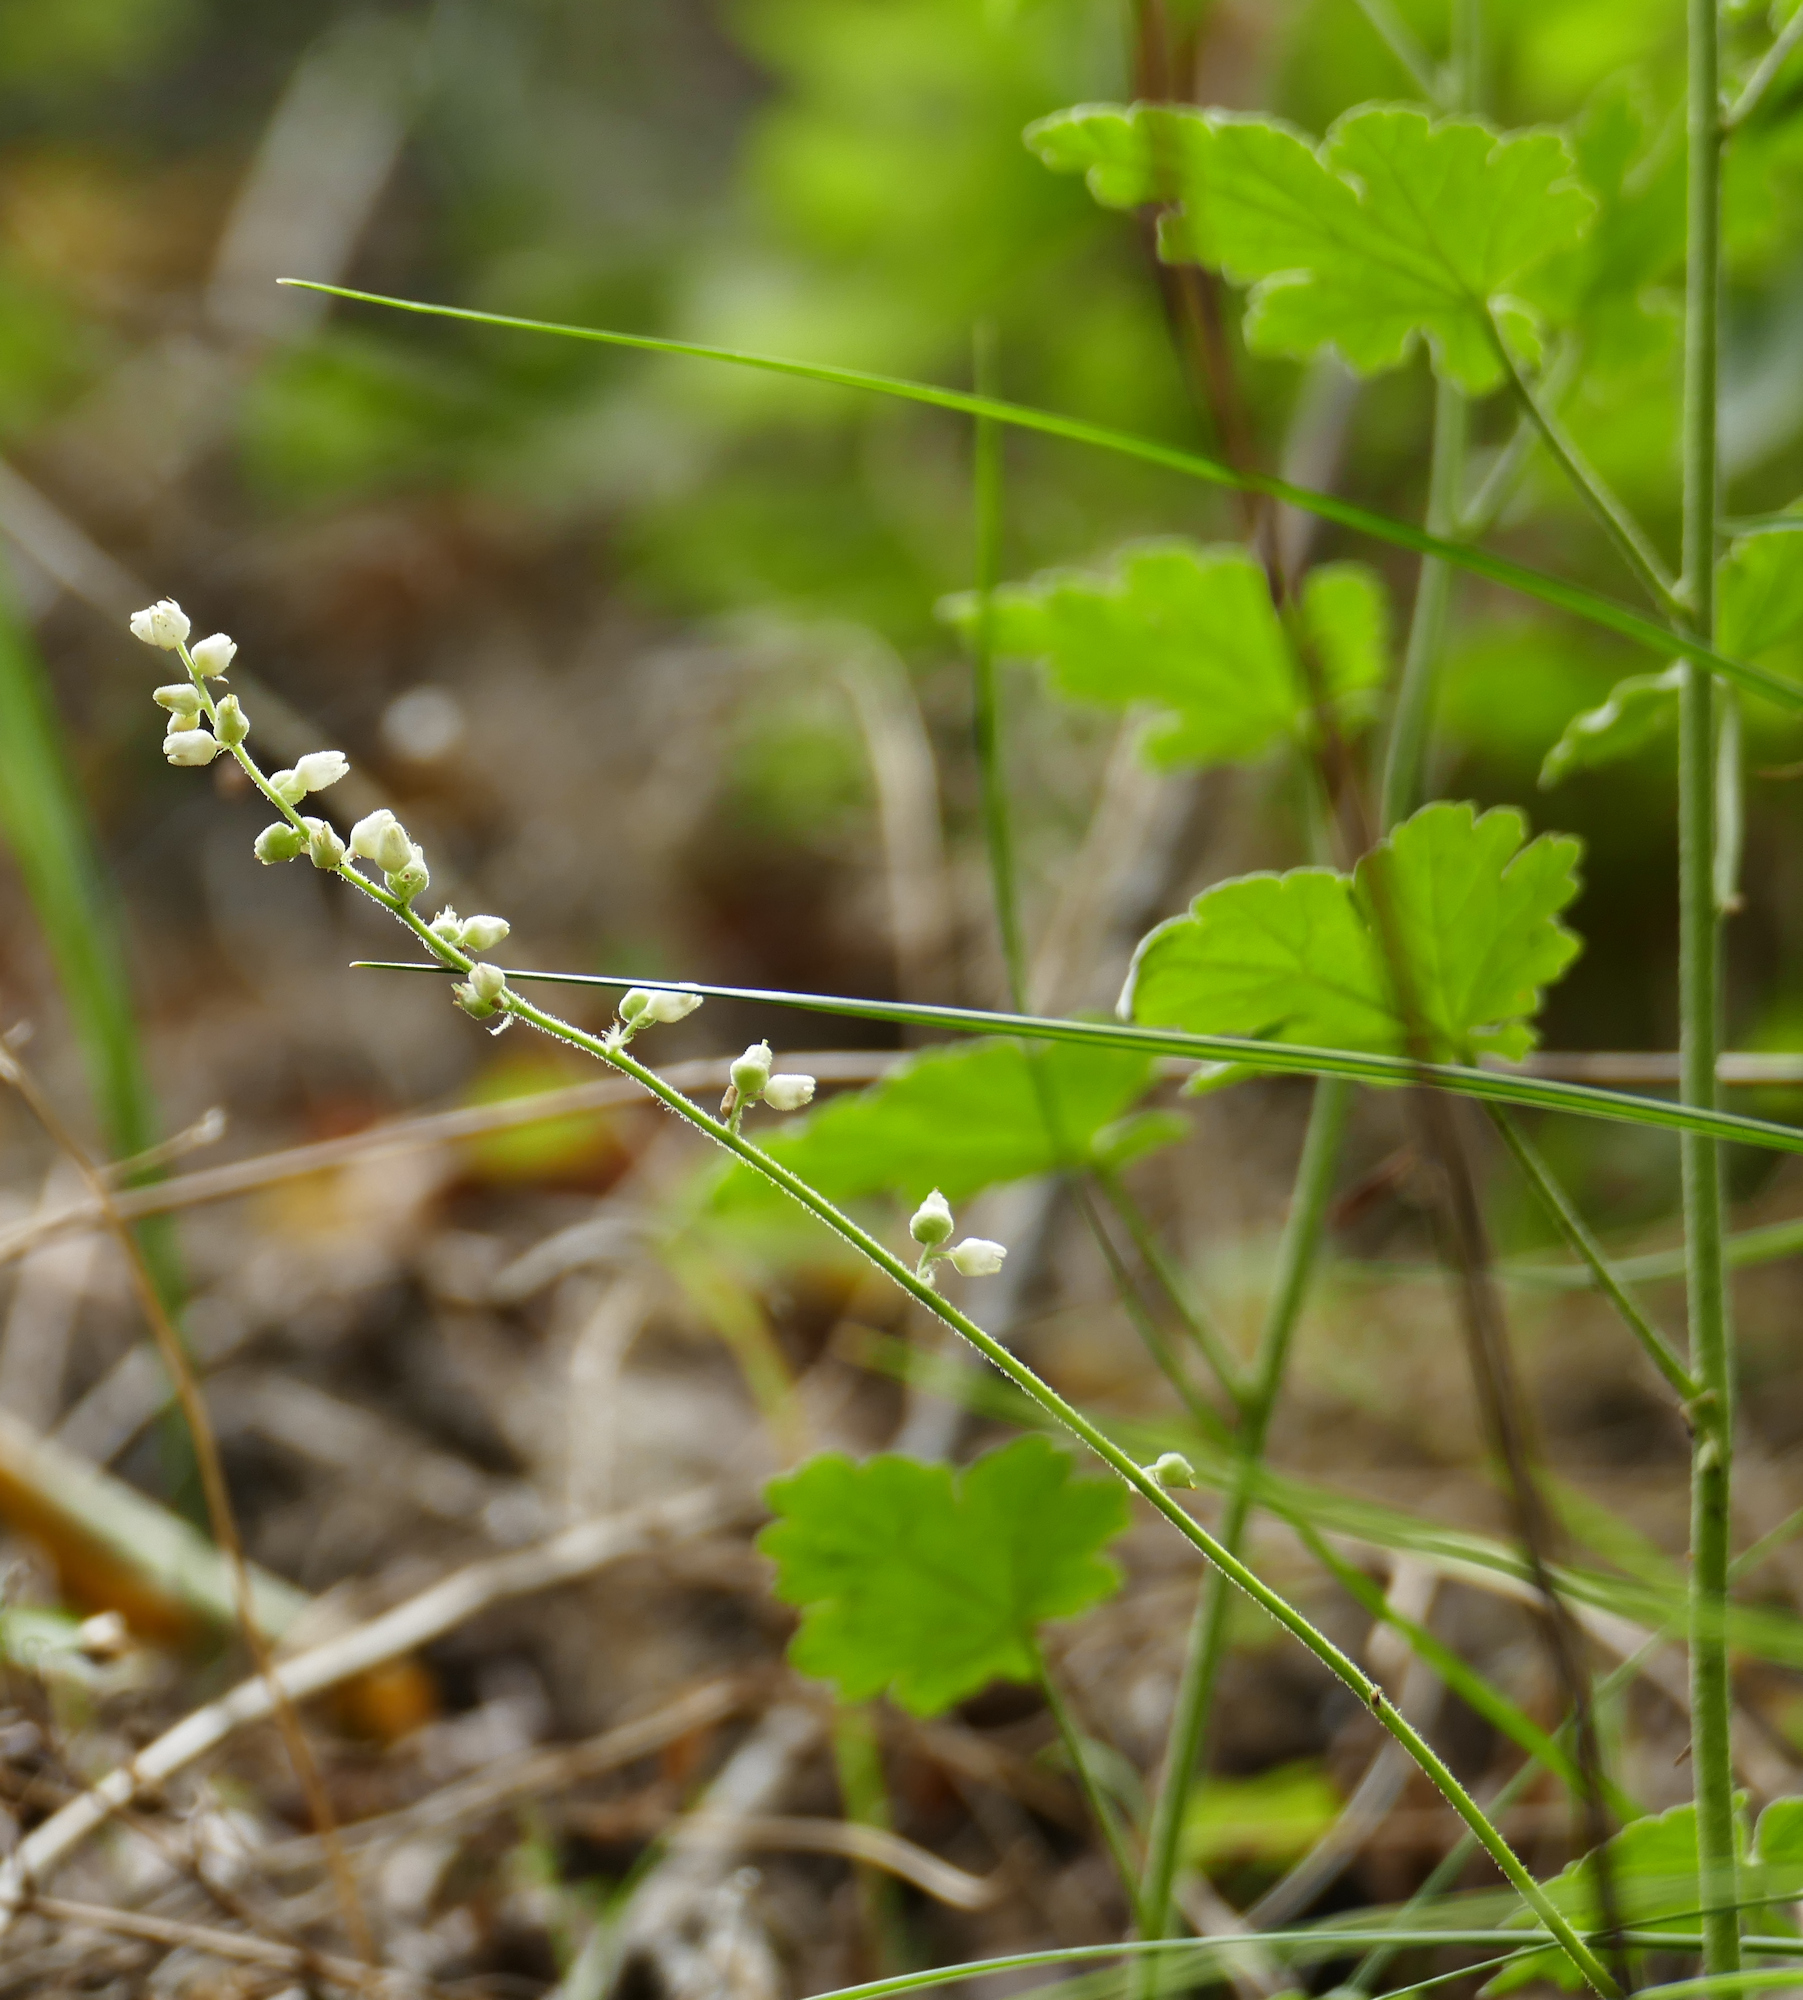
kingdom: Plantae
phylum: Tracheophyta
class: Magnoliopsida
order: Saxifragales
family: Saxifragaceae
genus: Heuchera
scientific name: Heuchera novomexicana
